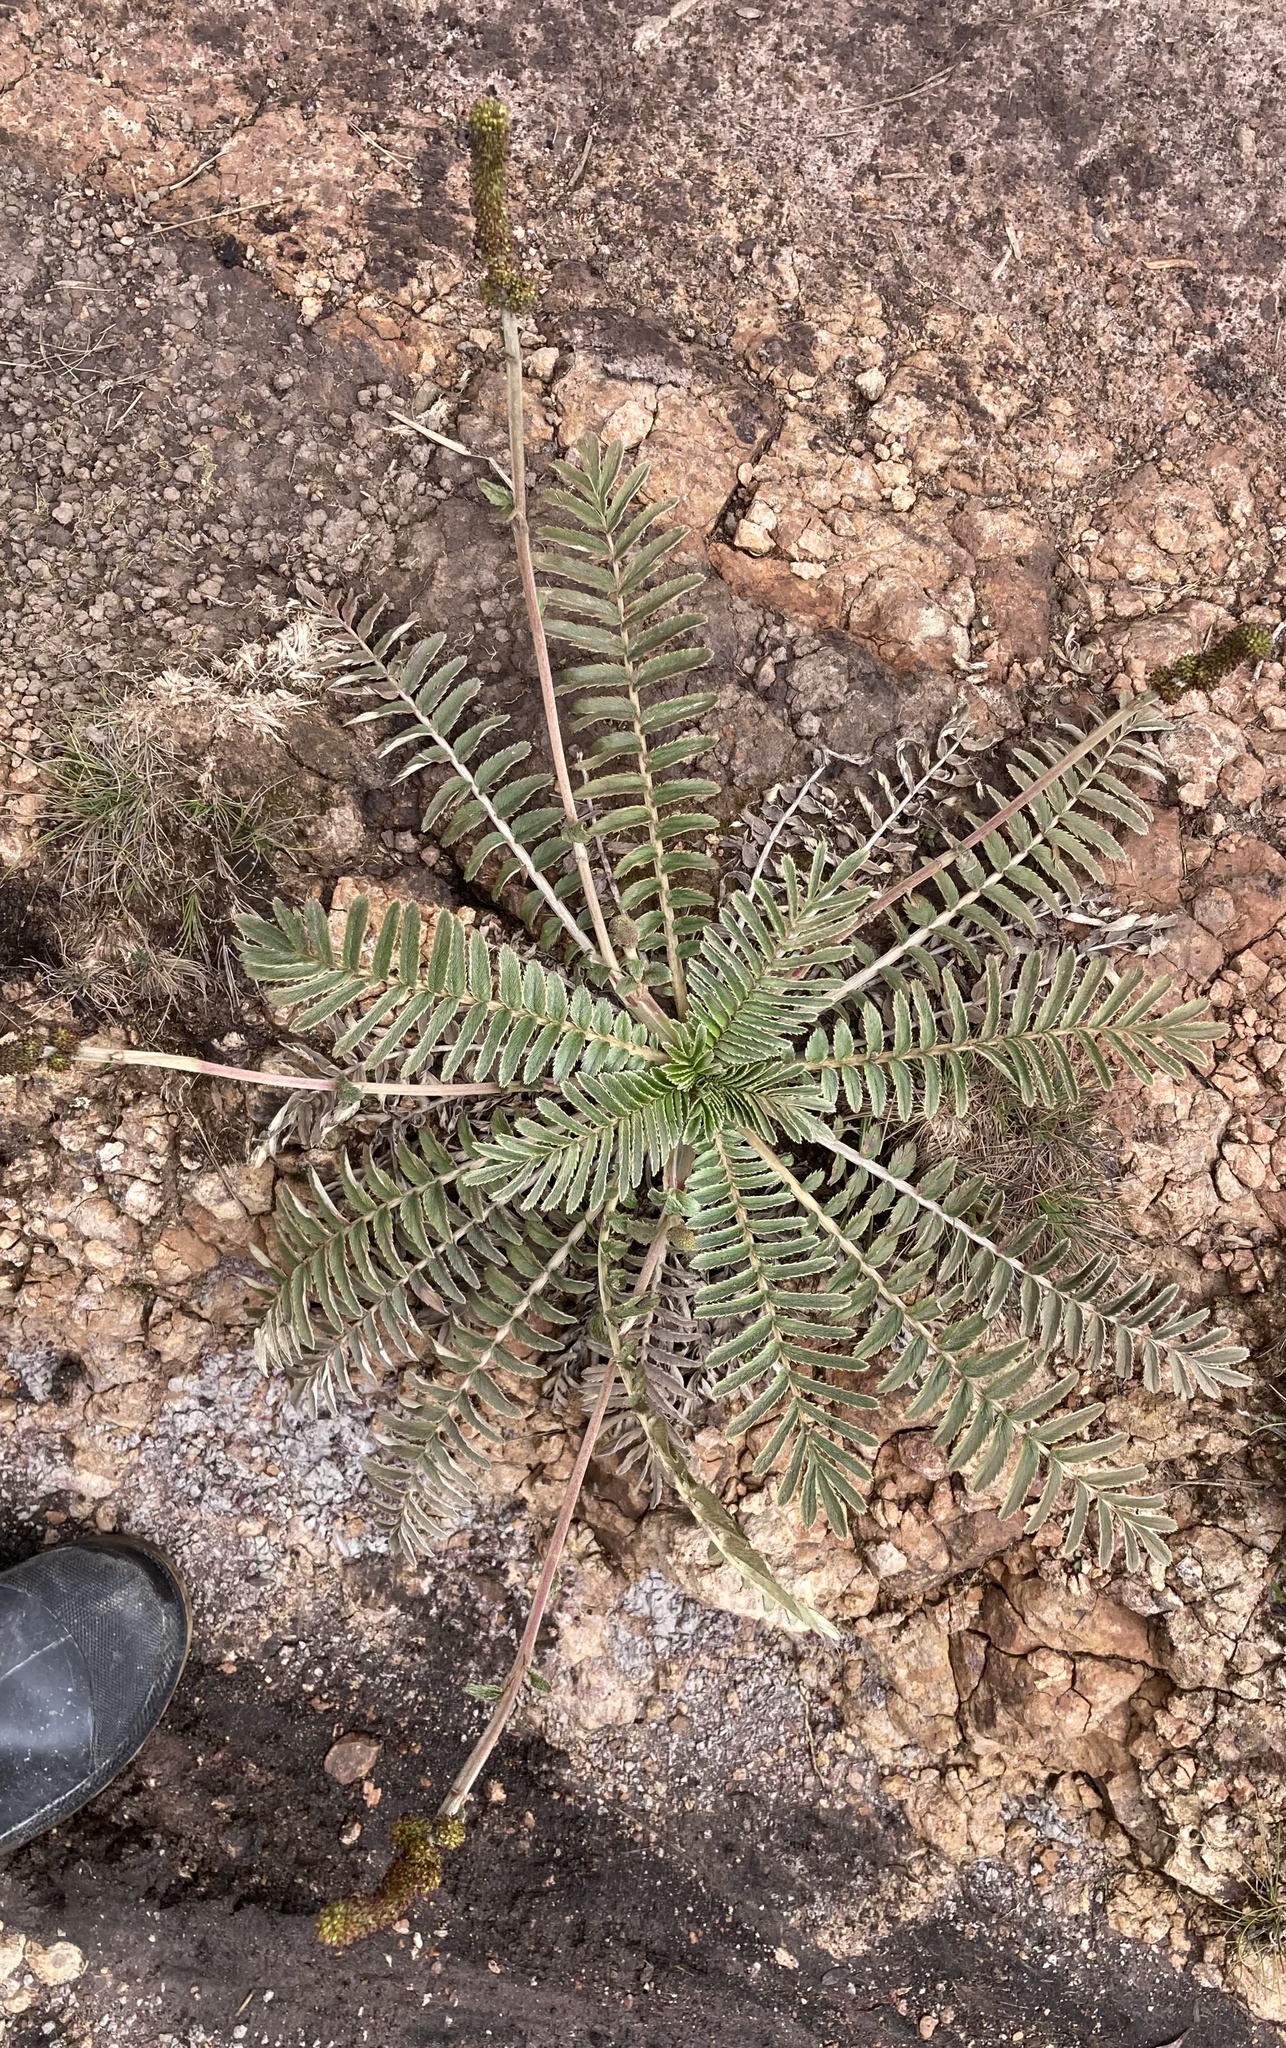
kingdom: Plantae
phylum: Tracheophyta
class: Magnoliopsida
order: Rosales
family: Rosaceae
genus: Acaena
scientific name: Acaena cylindristachya
